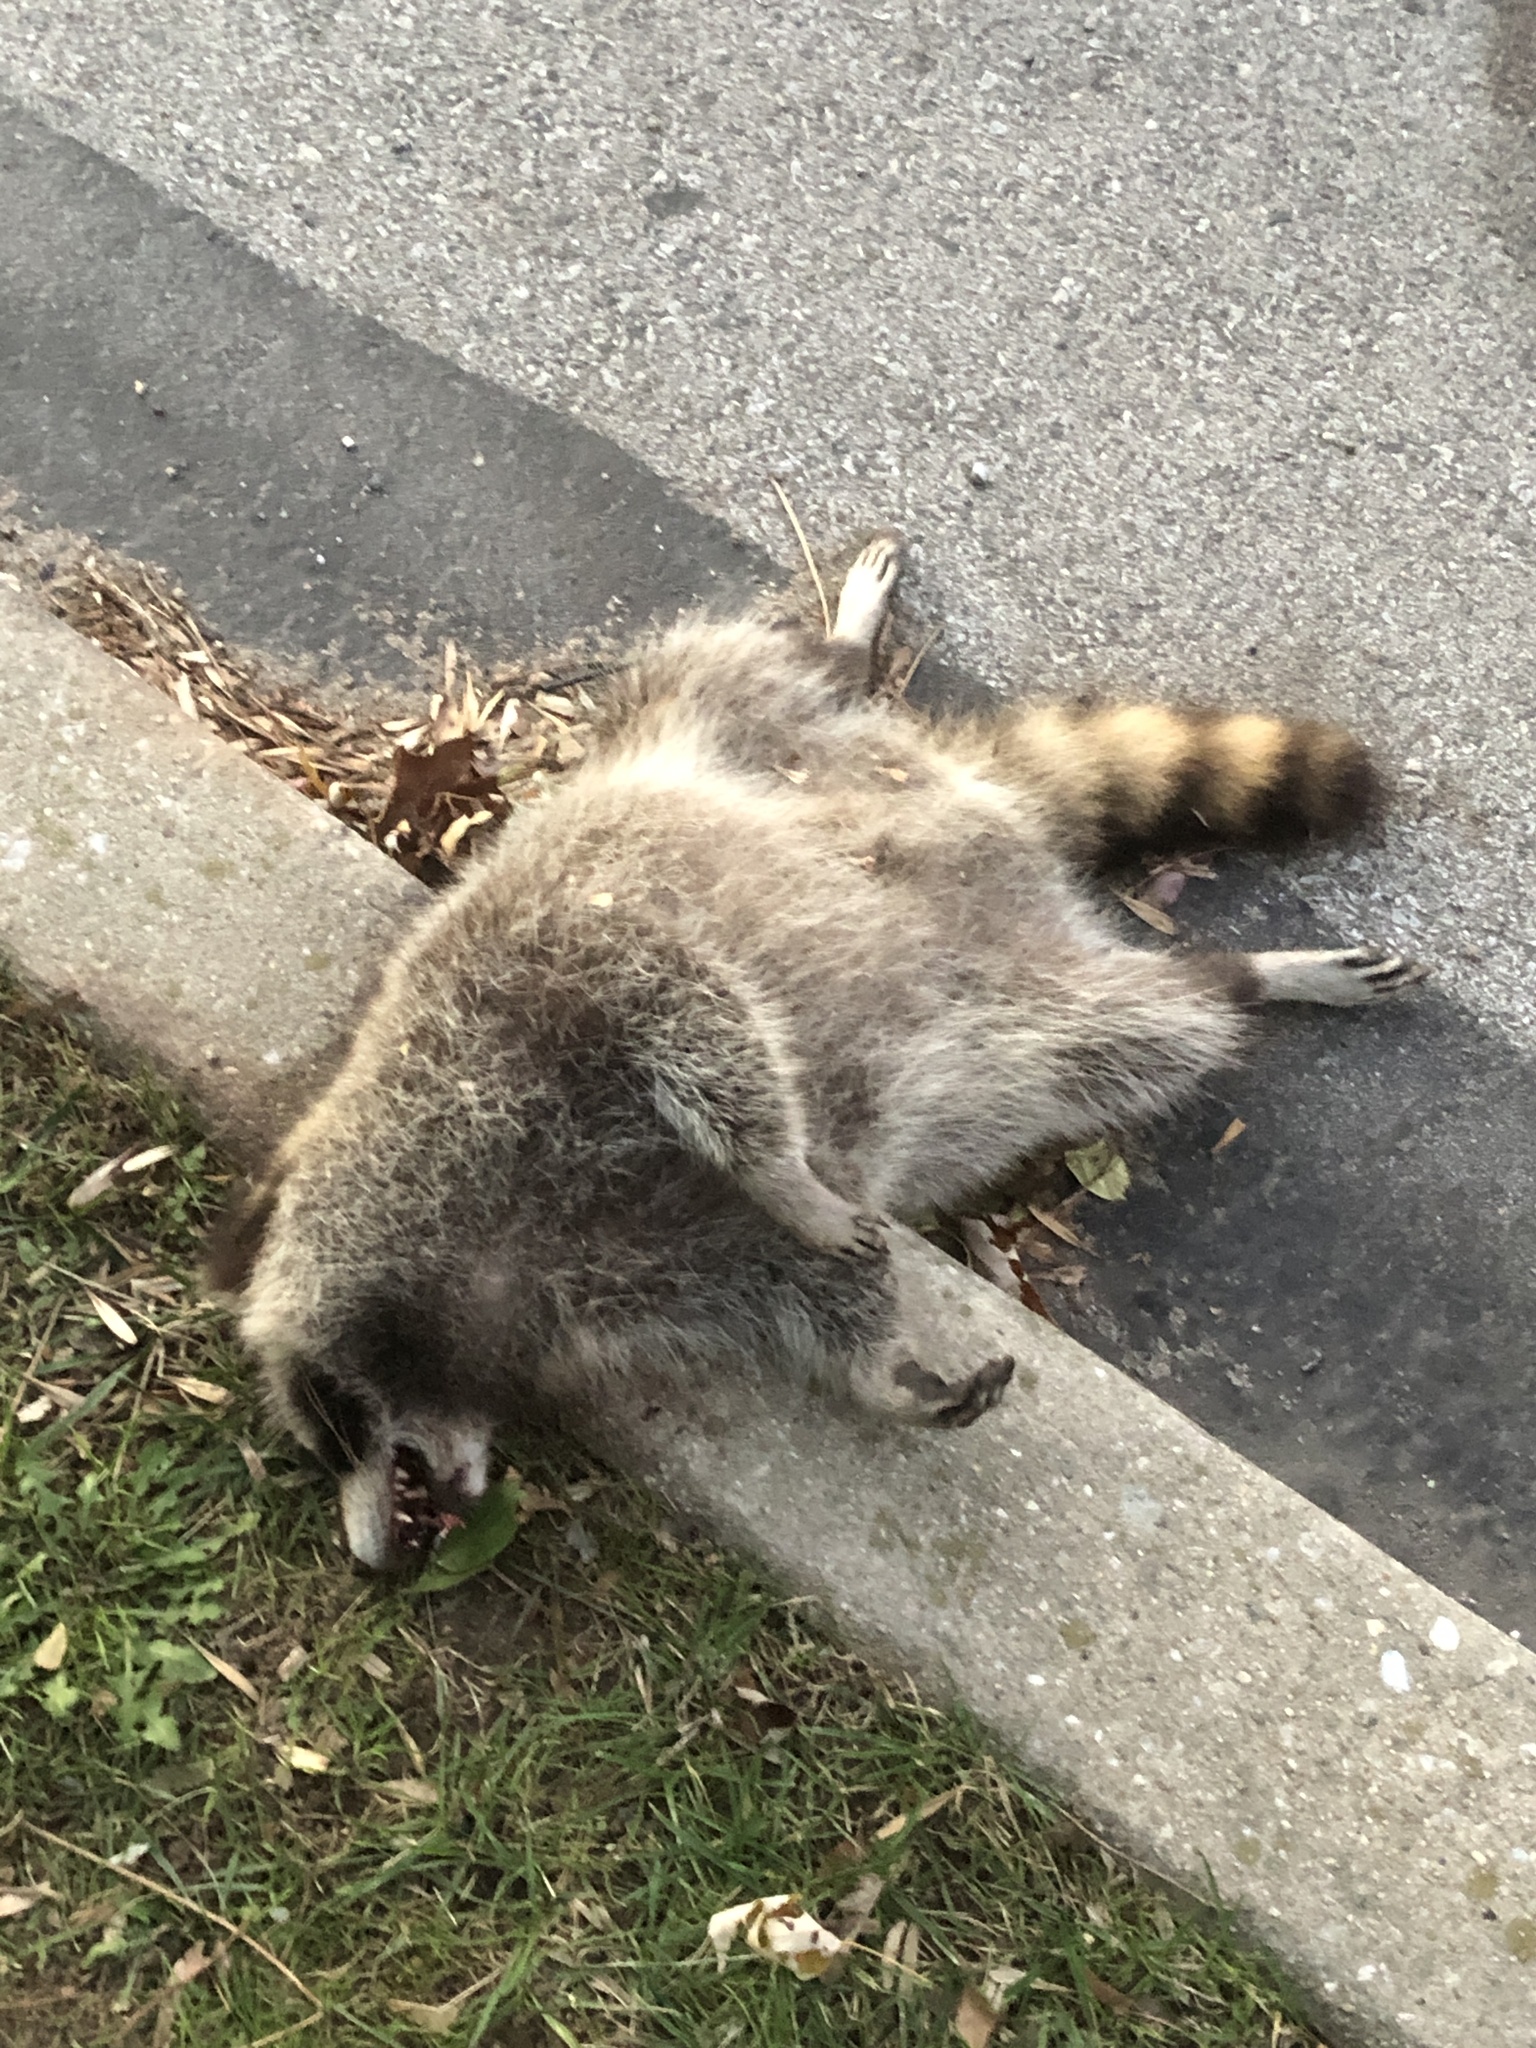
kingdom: Animalia
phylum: Chordata
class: Mammalia
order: Carnivora
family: Procyonidae
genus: Procyon
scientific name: Procyon lotor
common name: Raccoon
